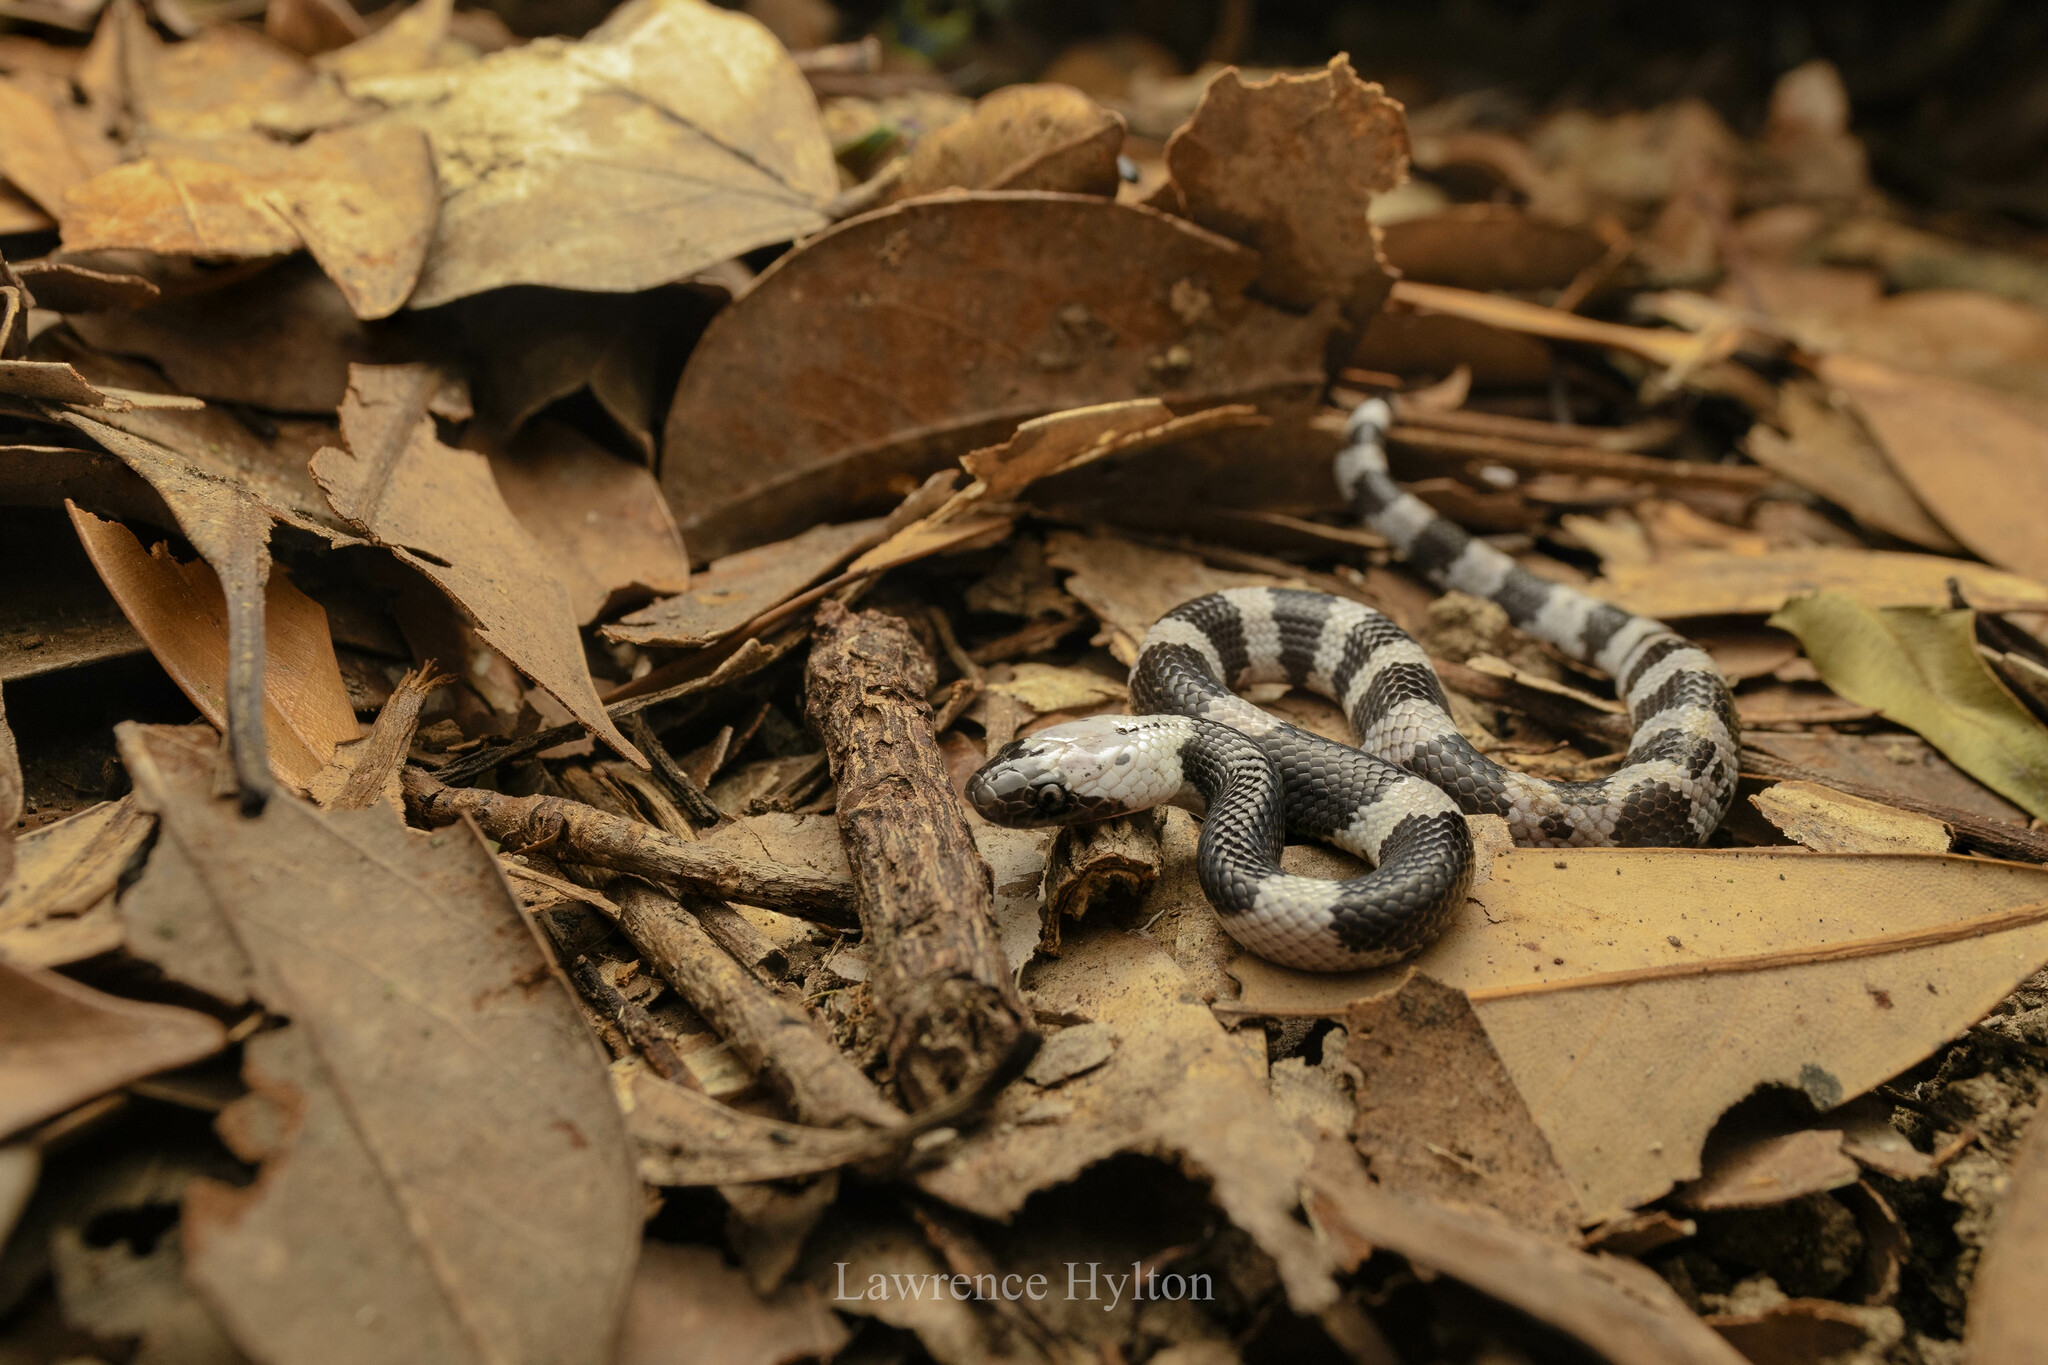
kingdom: Animalia
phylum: Chordata
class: Squamata
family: Colubridae
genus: Lycodon
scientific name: Lycodon futsingensis
